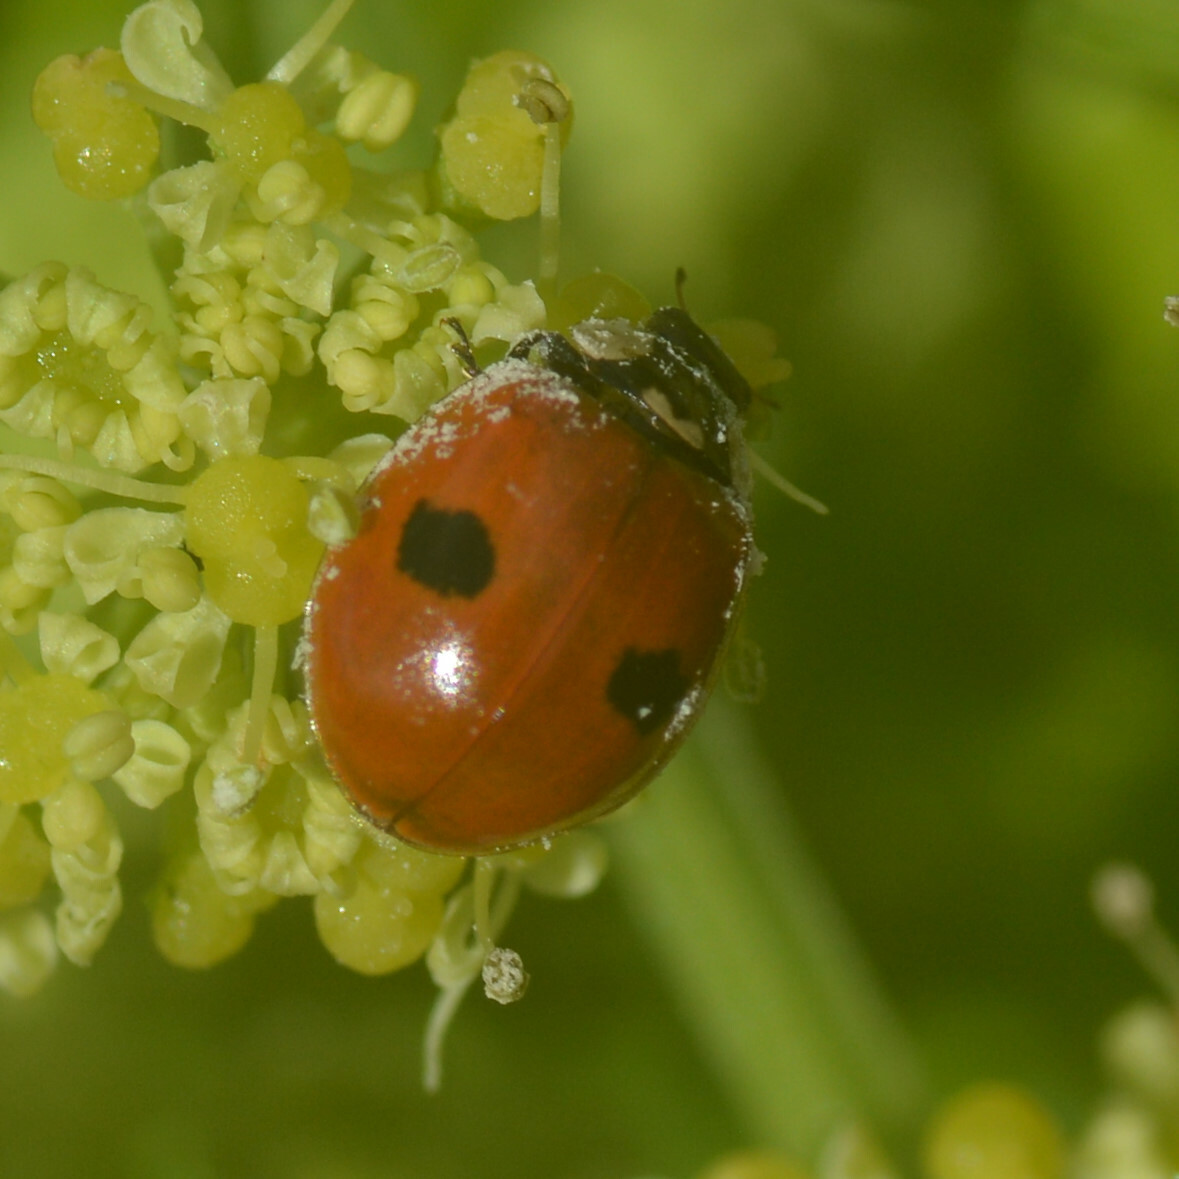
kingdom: Animalia
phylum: Arthropoda
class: Insecta
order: Coleoptera
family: Coccinellidae
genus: Adalia
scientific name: Adalia bipunctata
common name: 2-spot ladybird
